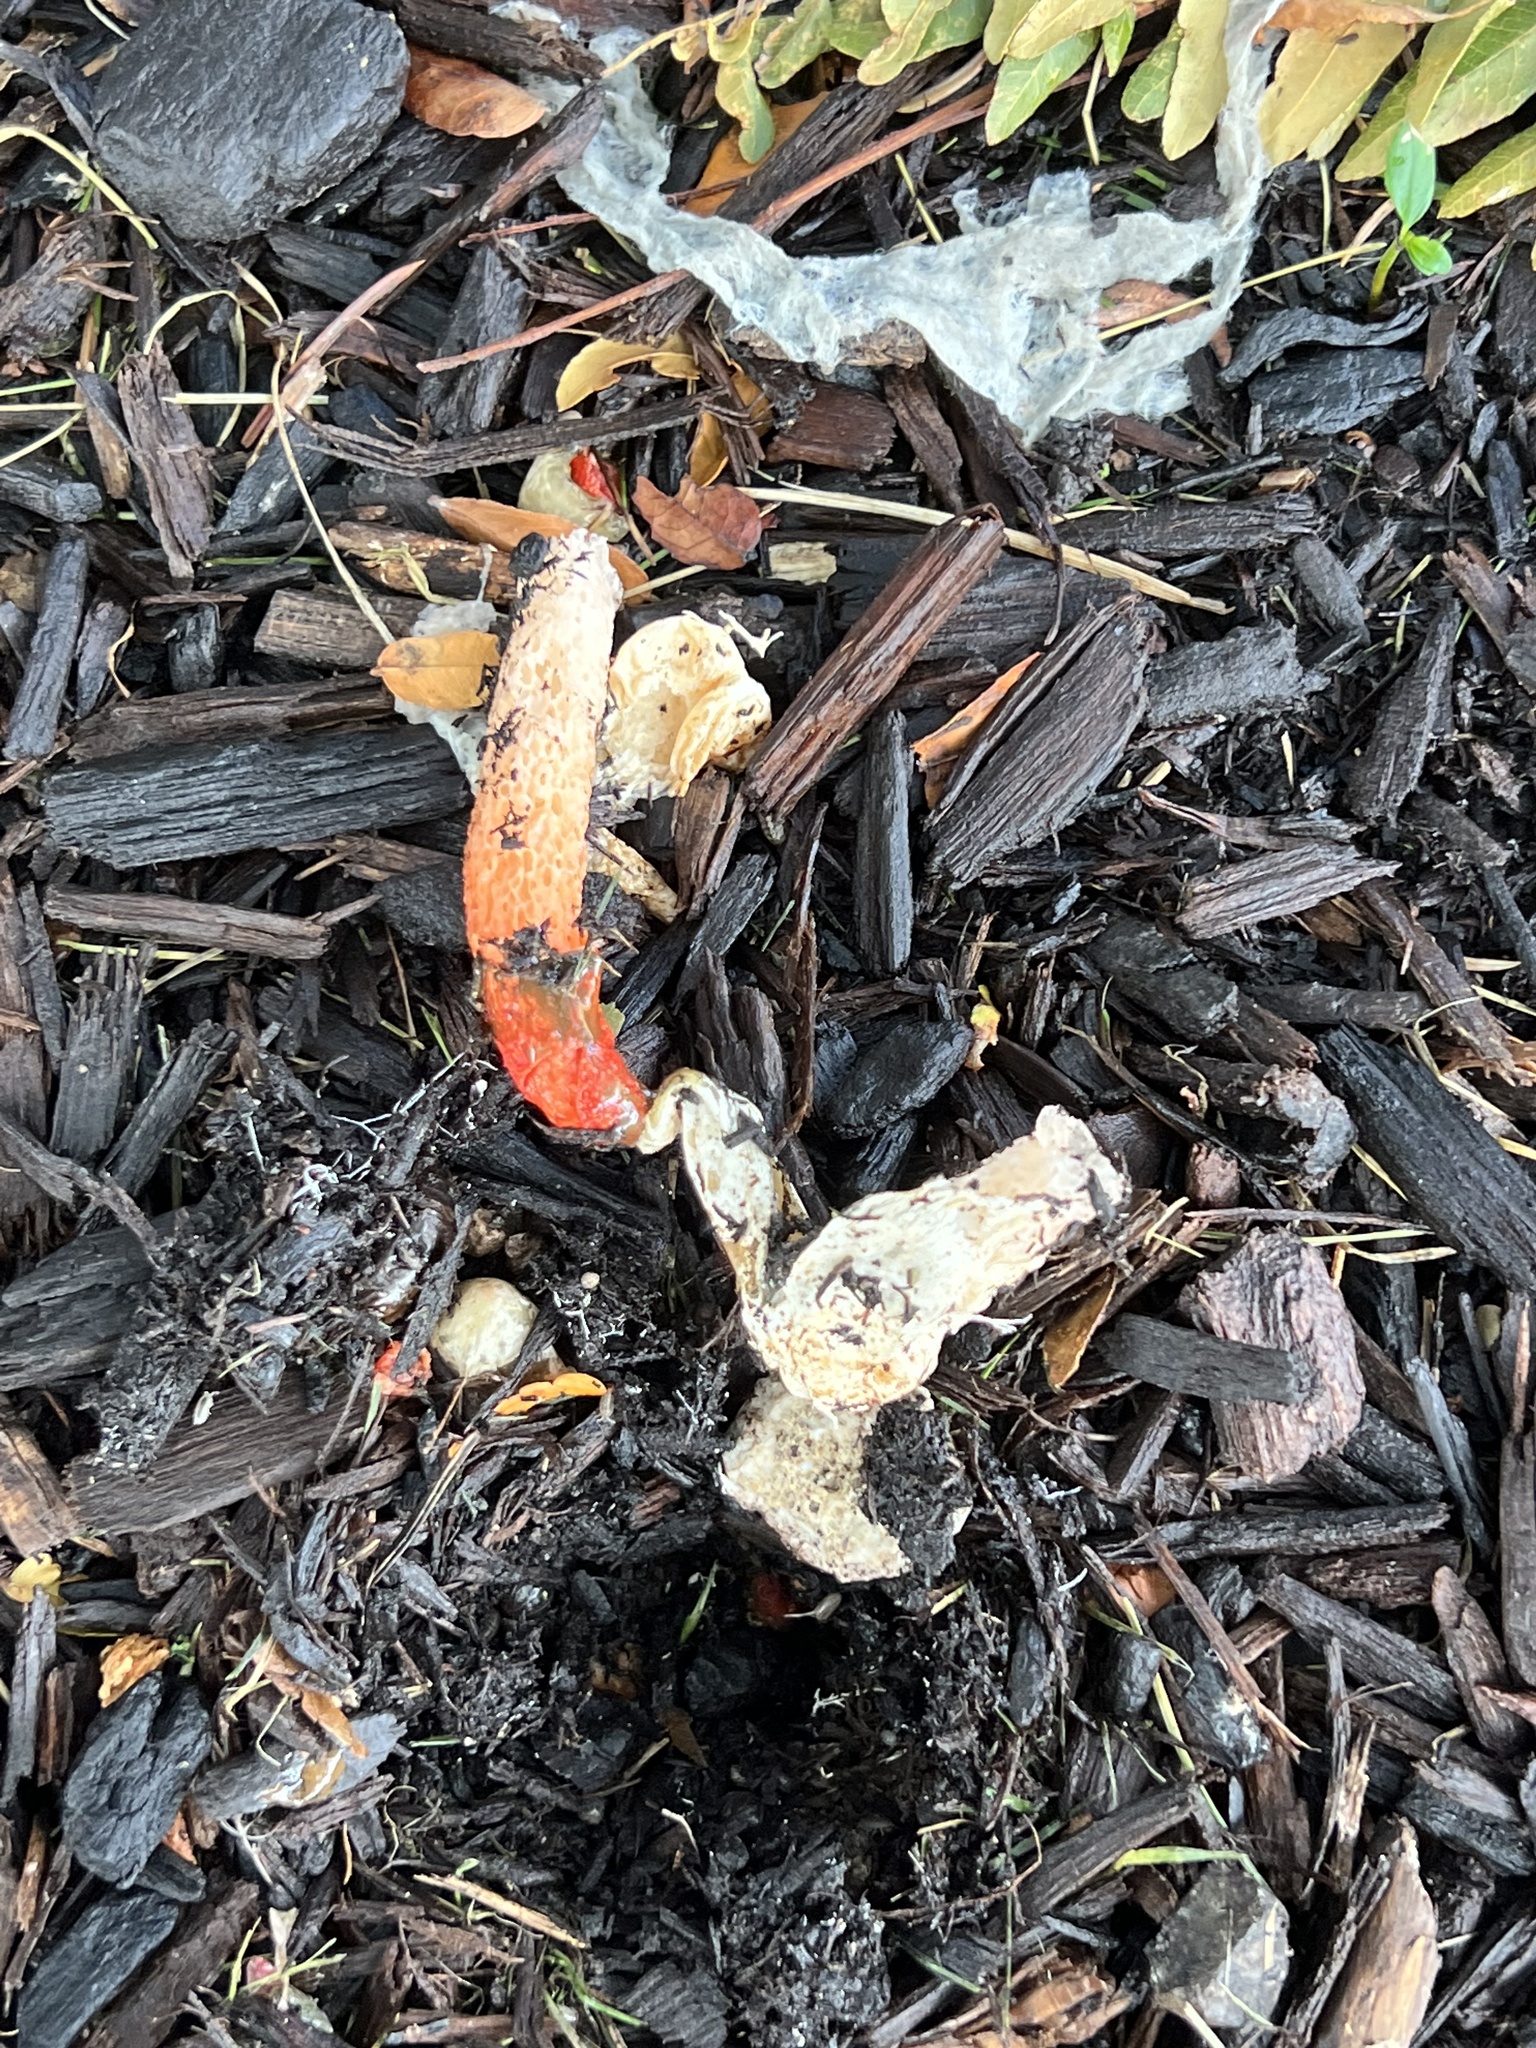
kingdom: Fungi
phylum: Basidiomycota
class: Agaricomycetes
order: Phallales
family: Phallaceae
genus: Phallus
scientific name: Phallus rugulosus
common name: Wrinkly stinkhorn
